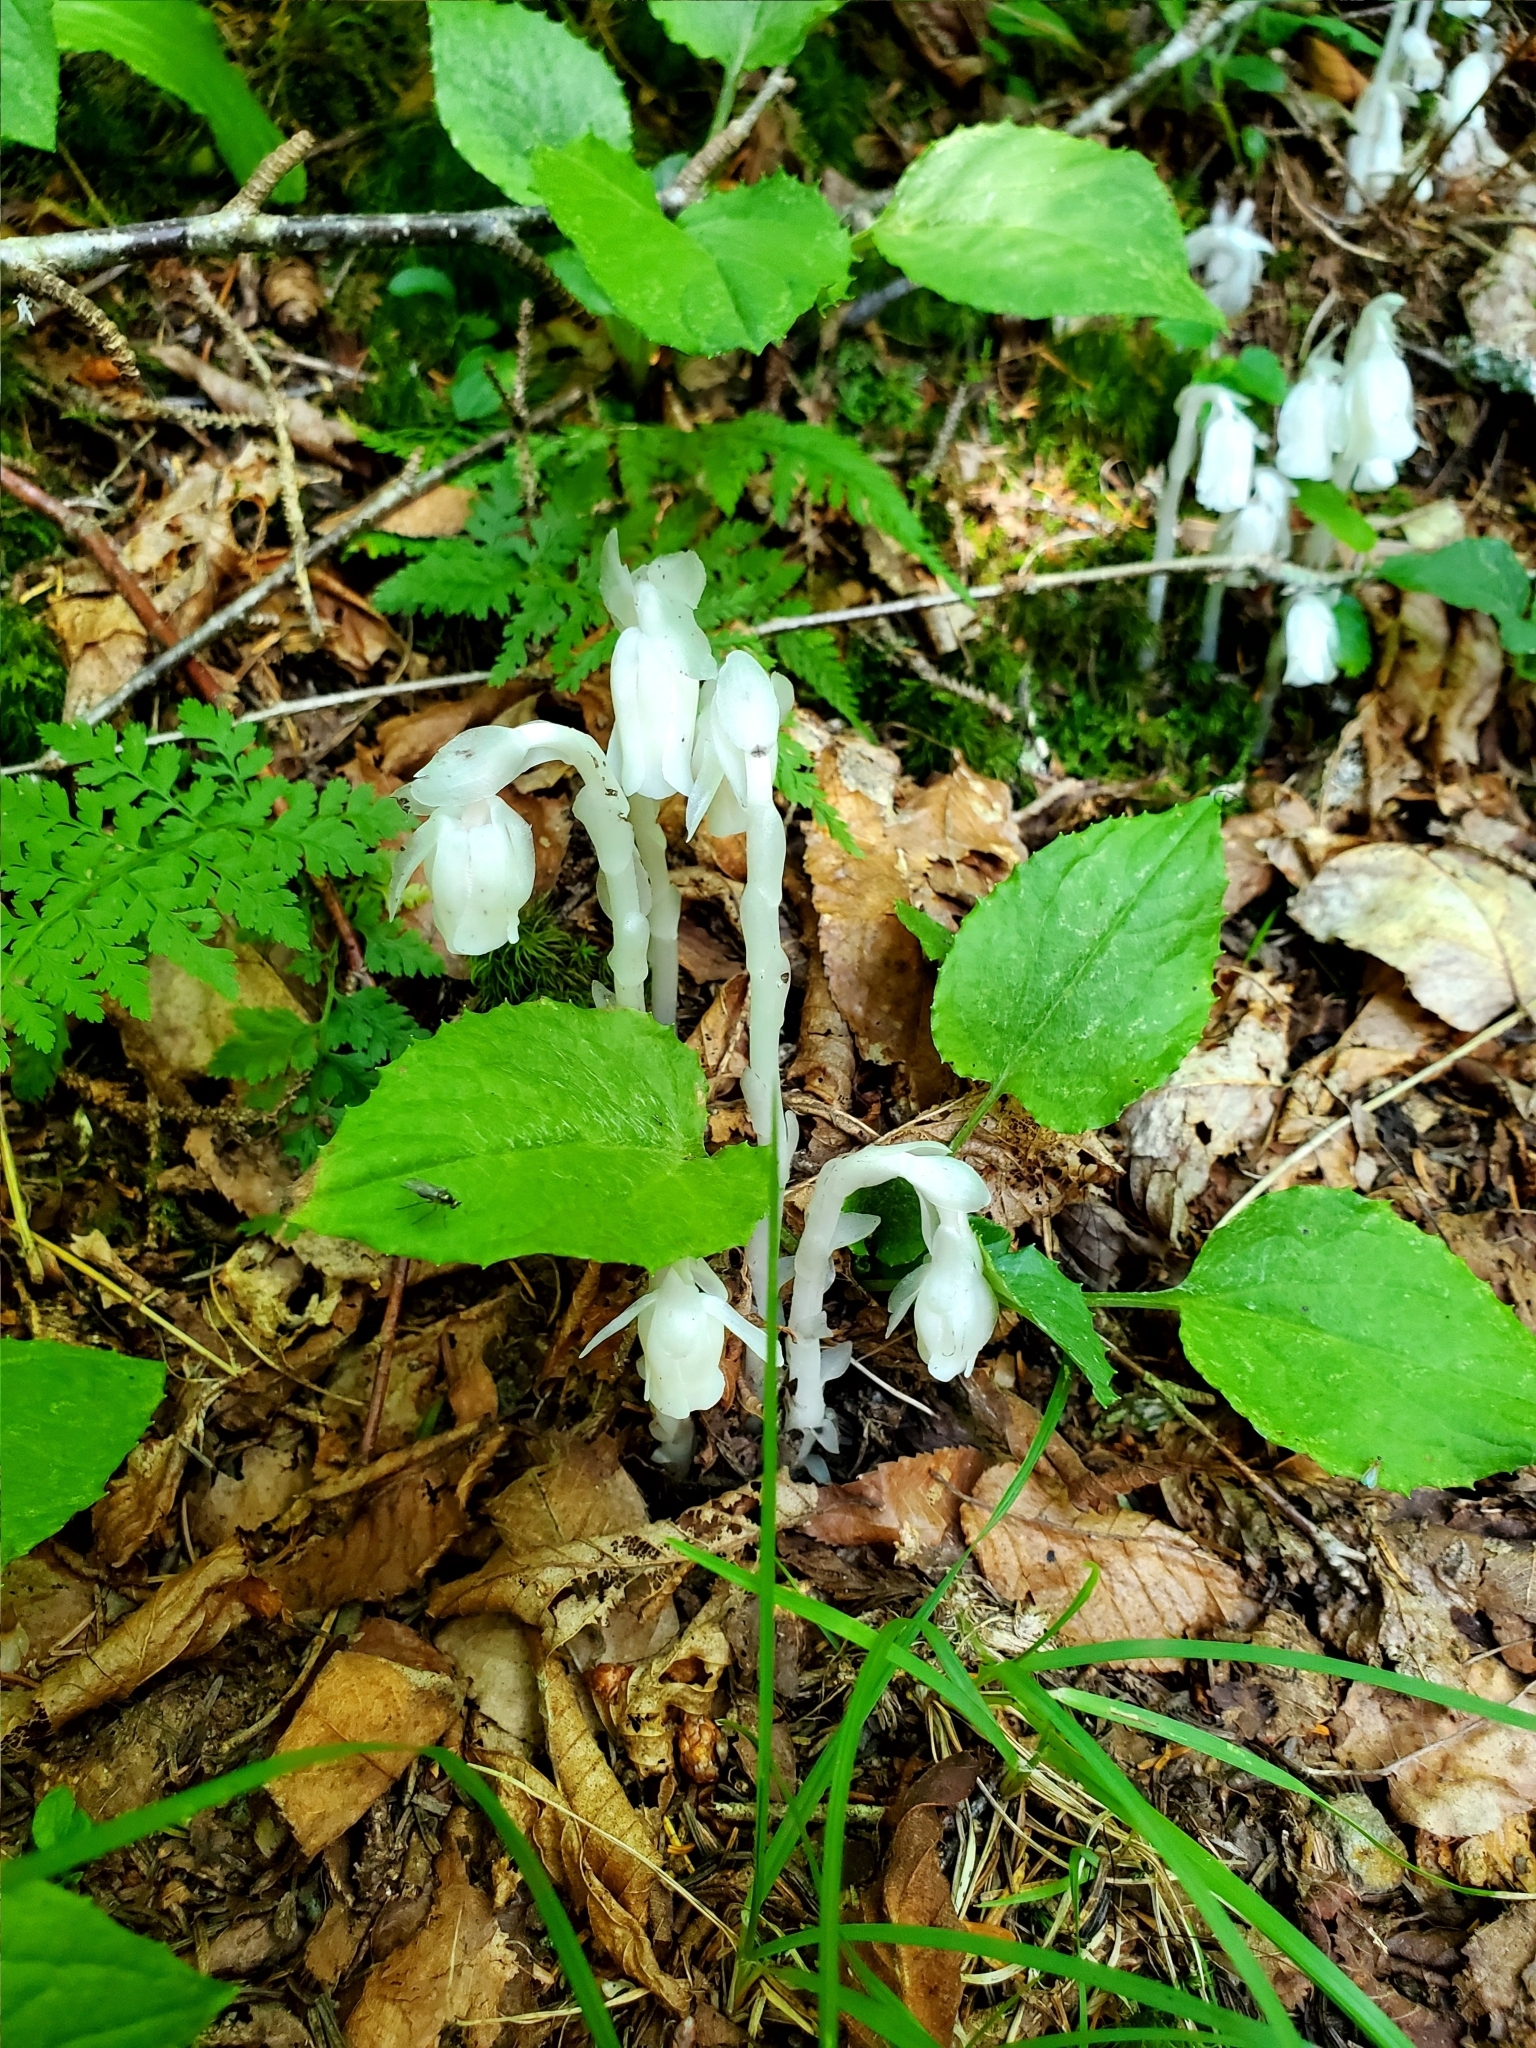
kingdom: Plantae
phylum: Tracheophyta
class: Magnoliopsida
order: Ericales
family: Ericaceae
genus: Monotropa
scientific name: Monotropa uniflora
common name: Convulsion root
